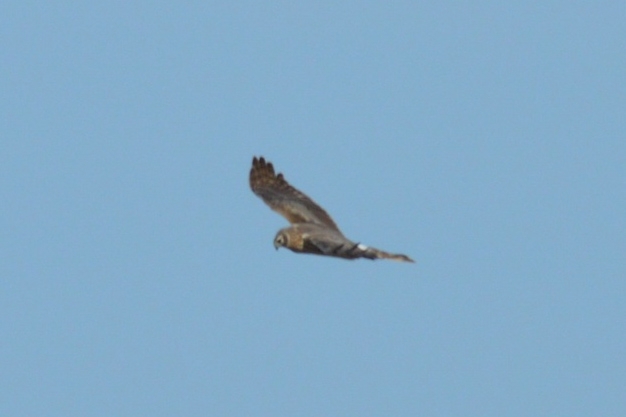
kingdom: Animalia
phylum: Chordata
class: Aves
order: Accipitriformes
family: Accipitridae
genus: Circus
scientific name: Circus cyaneus
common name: Hen harrier
